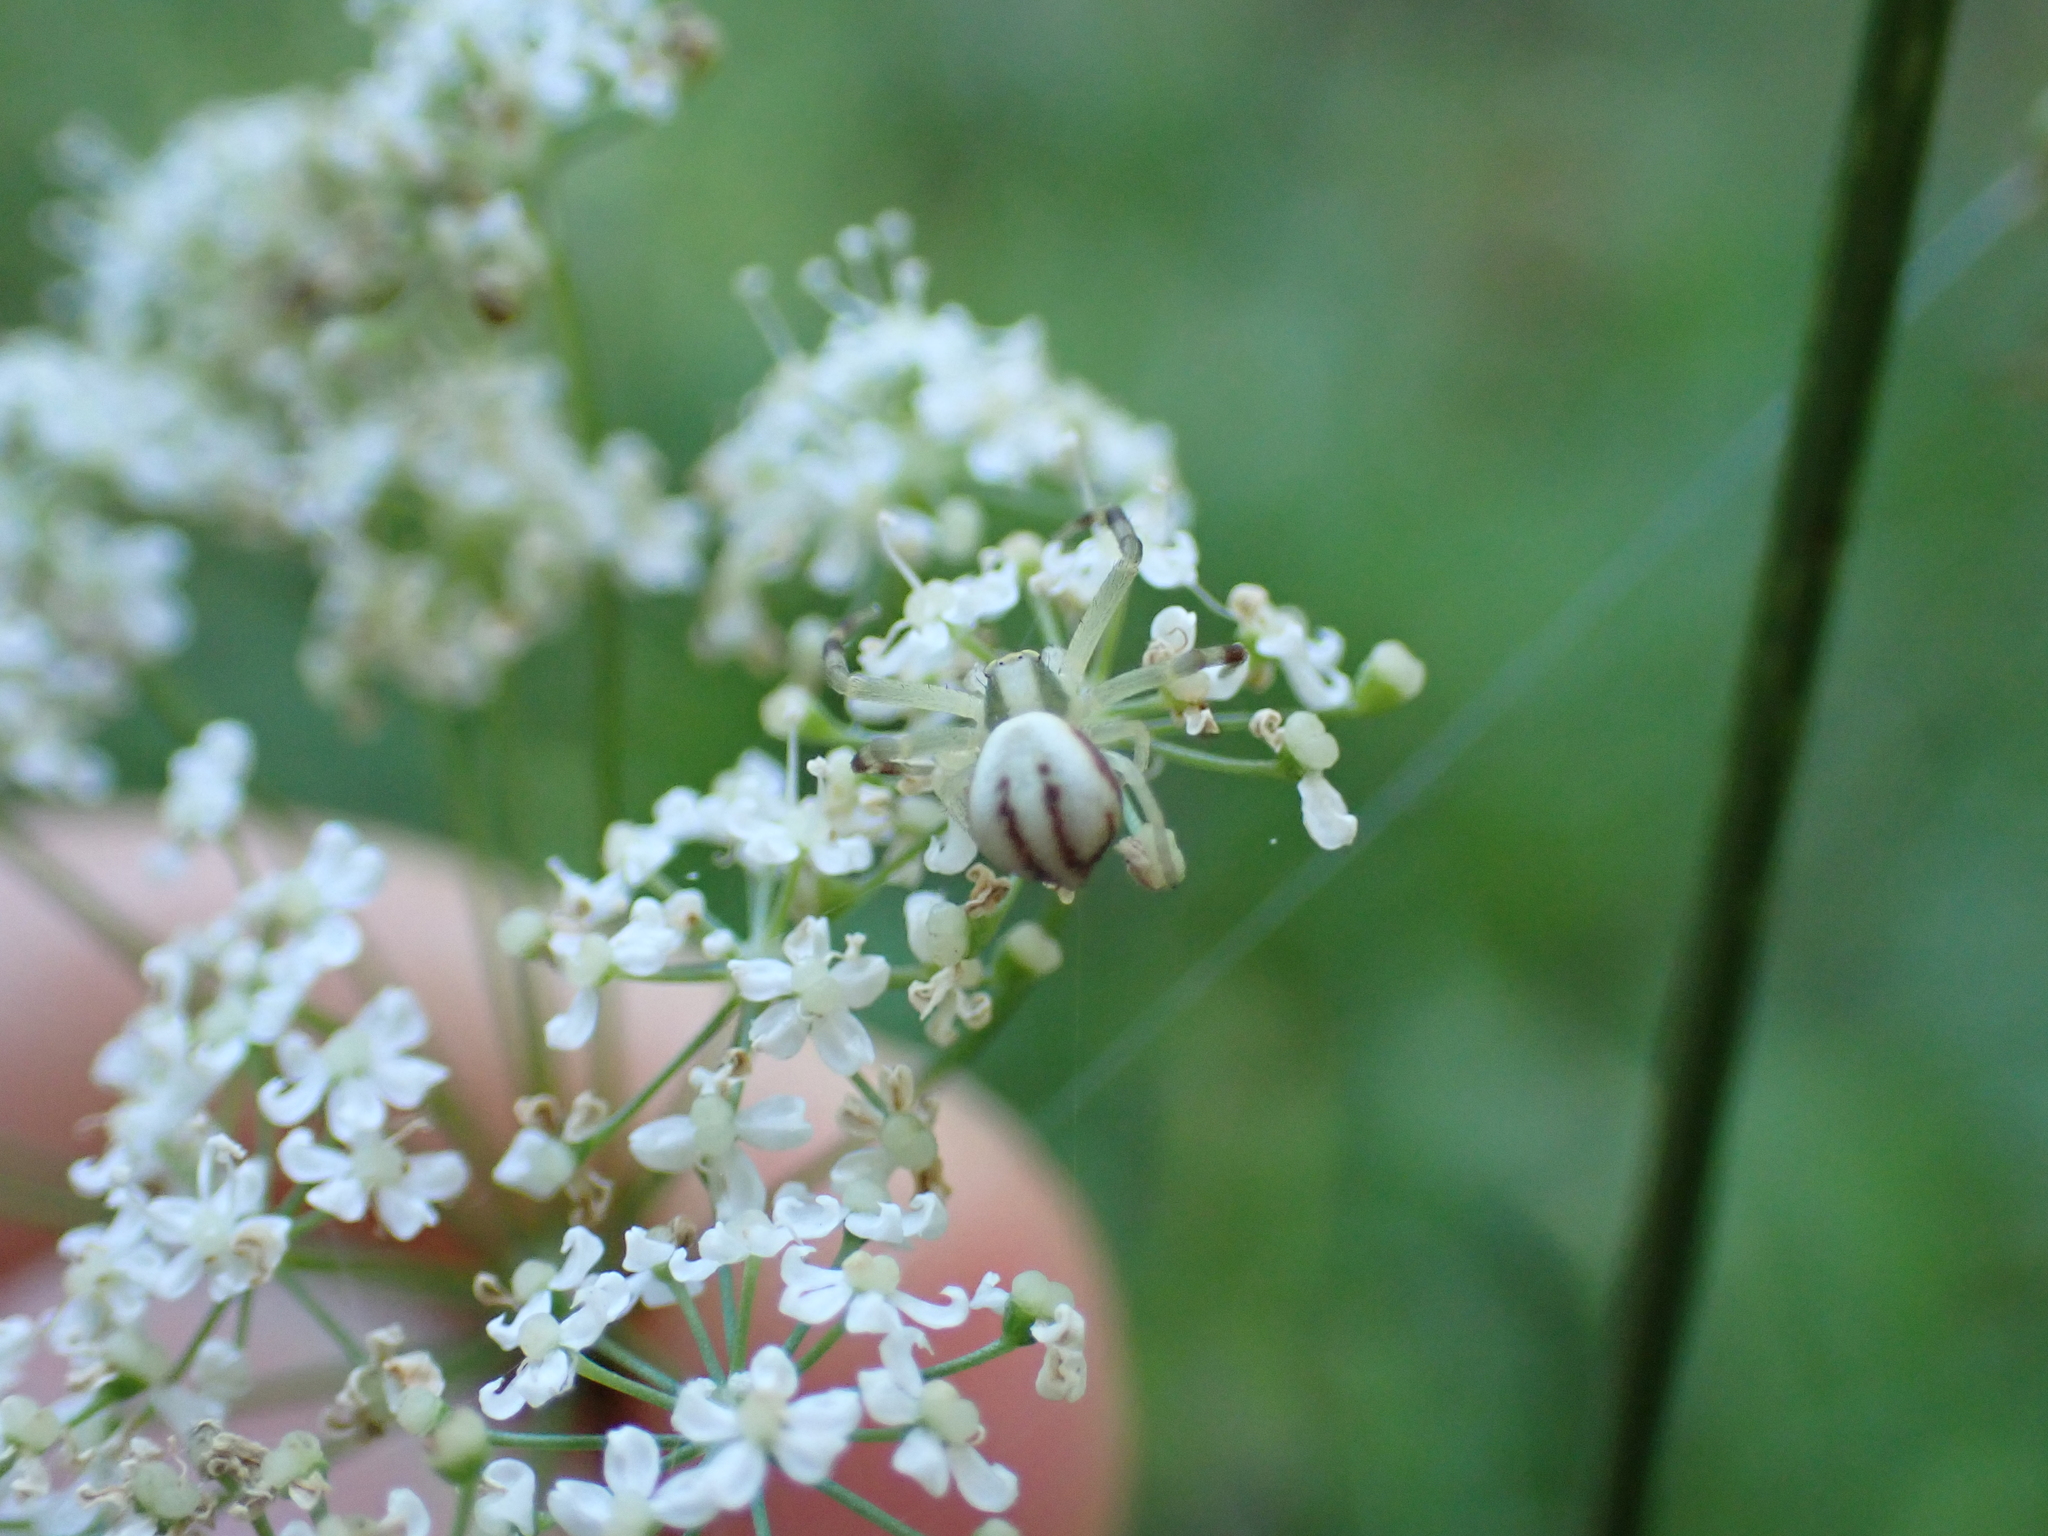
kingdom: Animalia
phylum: Arthropoda
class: Arachnida
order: Araneae
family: Thomisidae
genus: Misumena
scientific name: Misumena vatia
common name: Goldenrod crab spider
